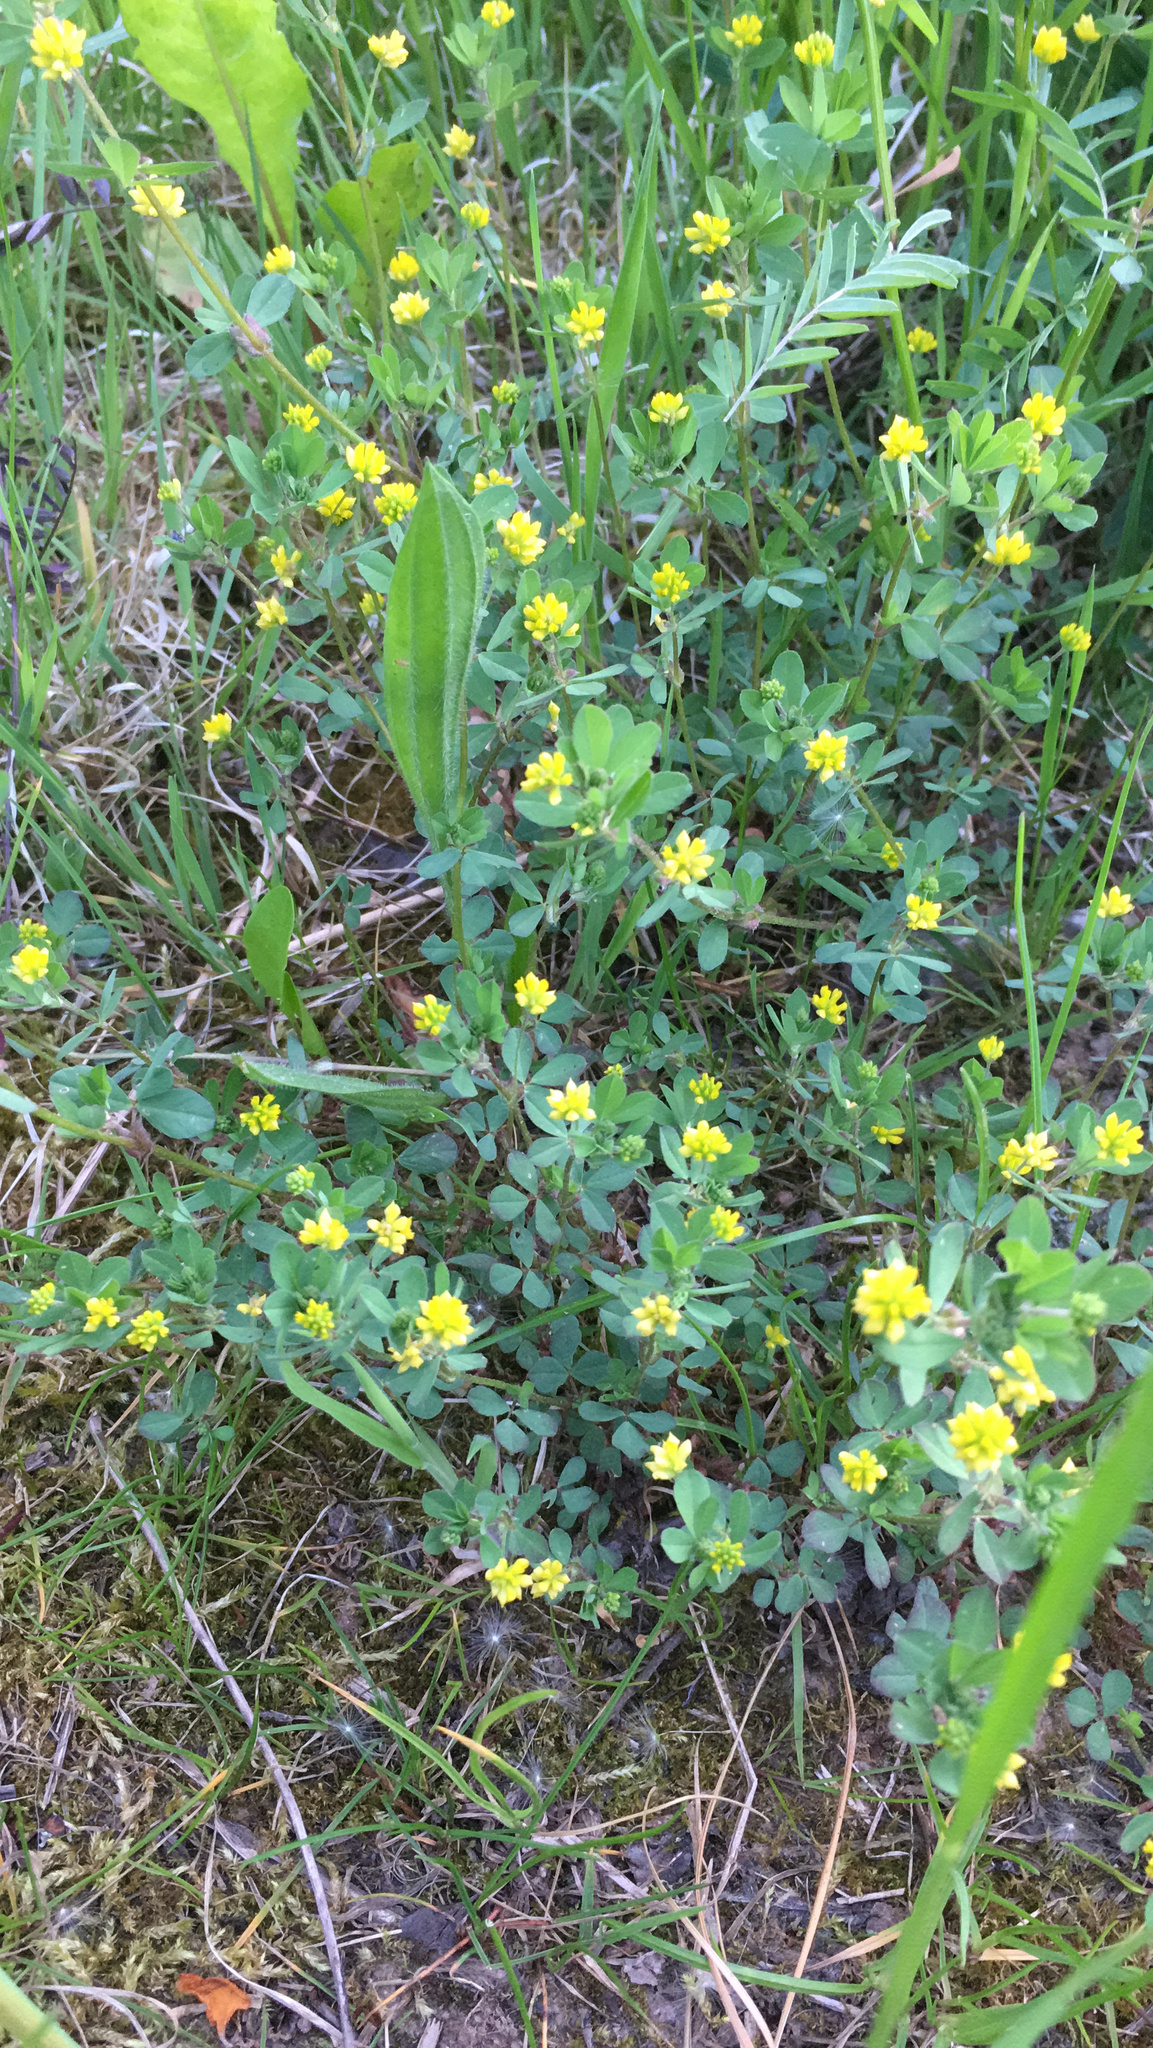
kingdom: Plantae
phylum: Tracheophyta
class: Magnoliopsida
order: Fabales
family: Fabaceae
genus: Trifolium
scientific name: Trifolium dubium
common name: Suckling clover
